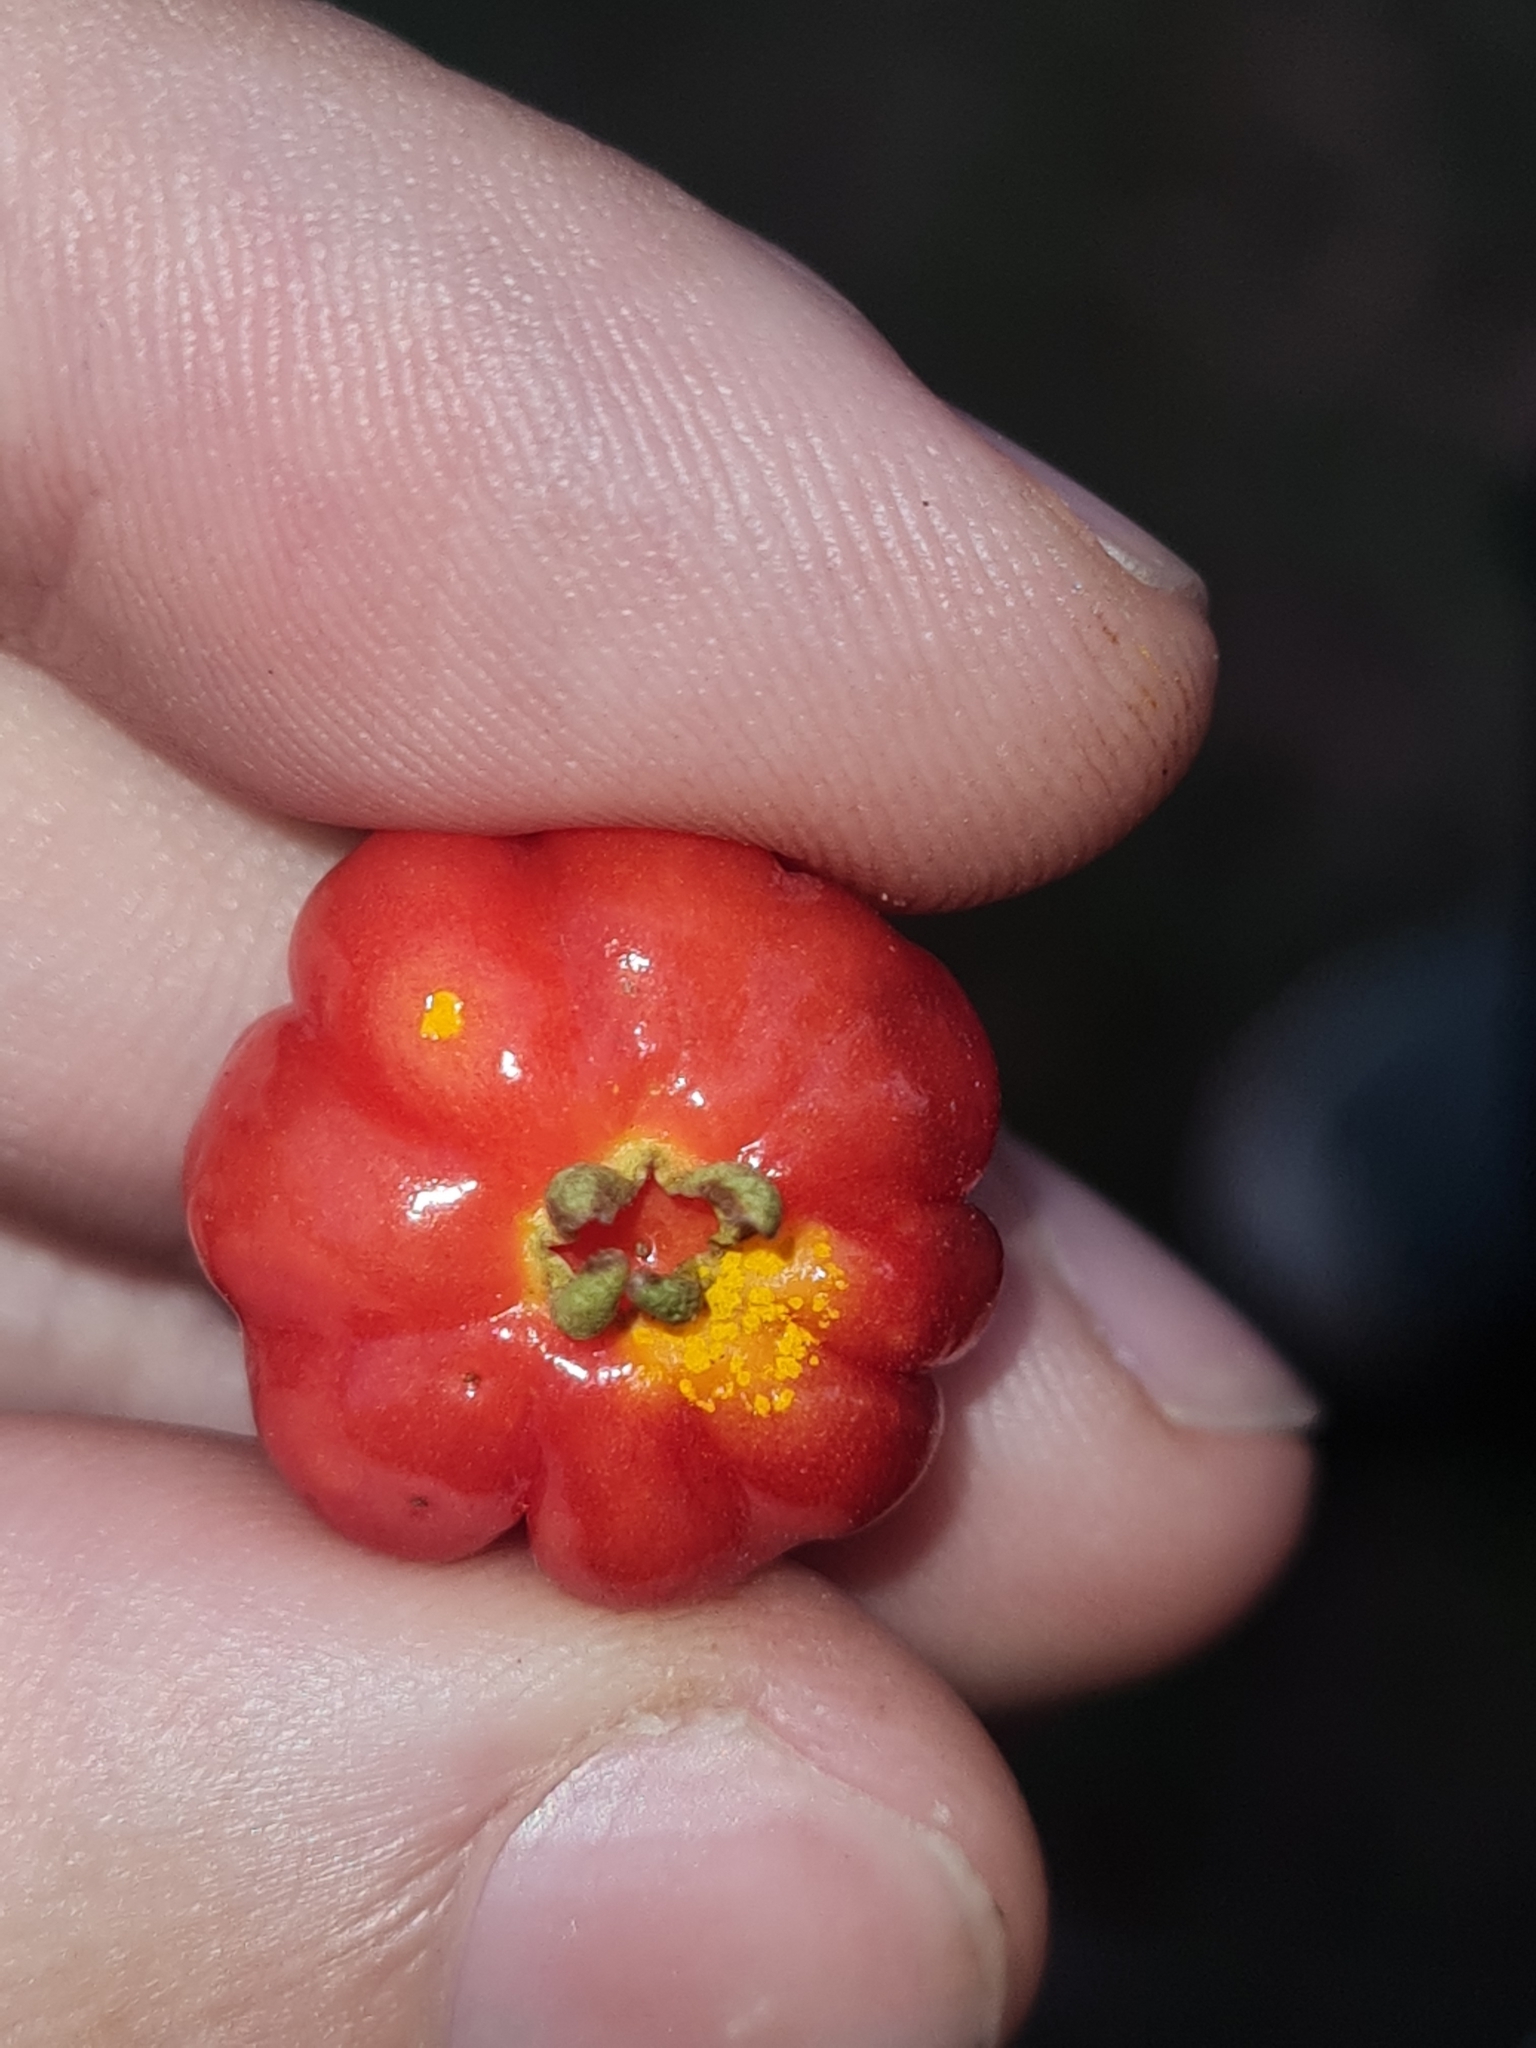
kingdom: Fungi
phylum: Basidiomycota
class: Pucciniomycetes
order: Pucciniales
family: Sphaerophragmiaceae
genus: Austropuccinia
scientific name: Austropuccinia psidii
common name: Myrtle rust
